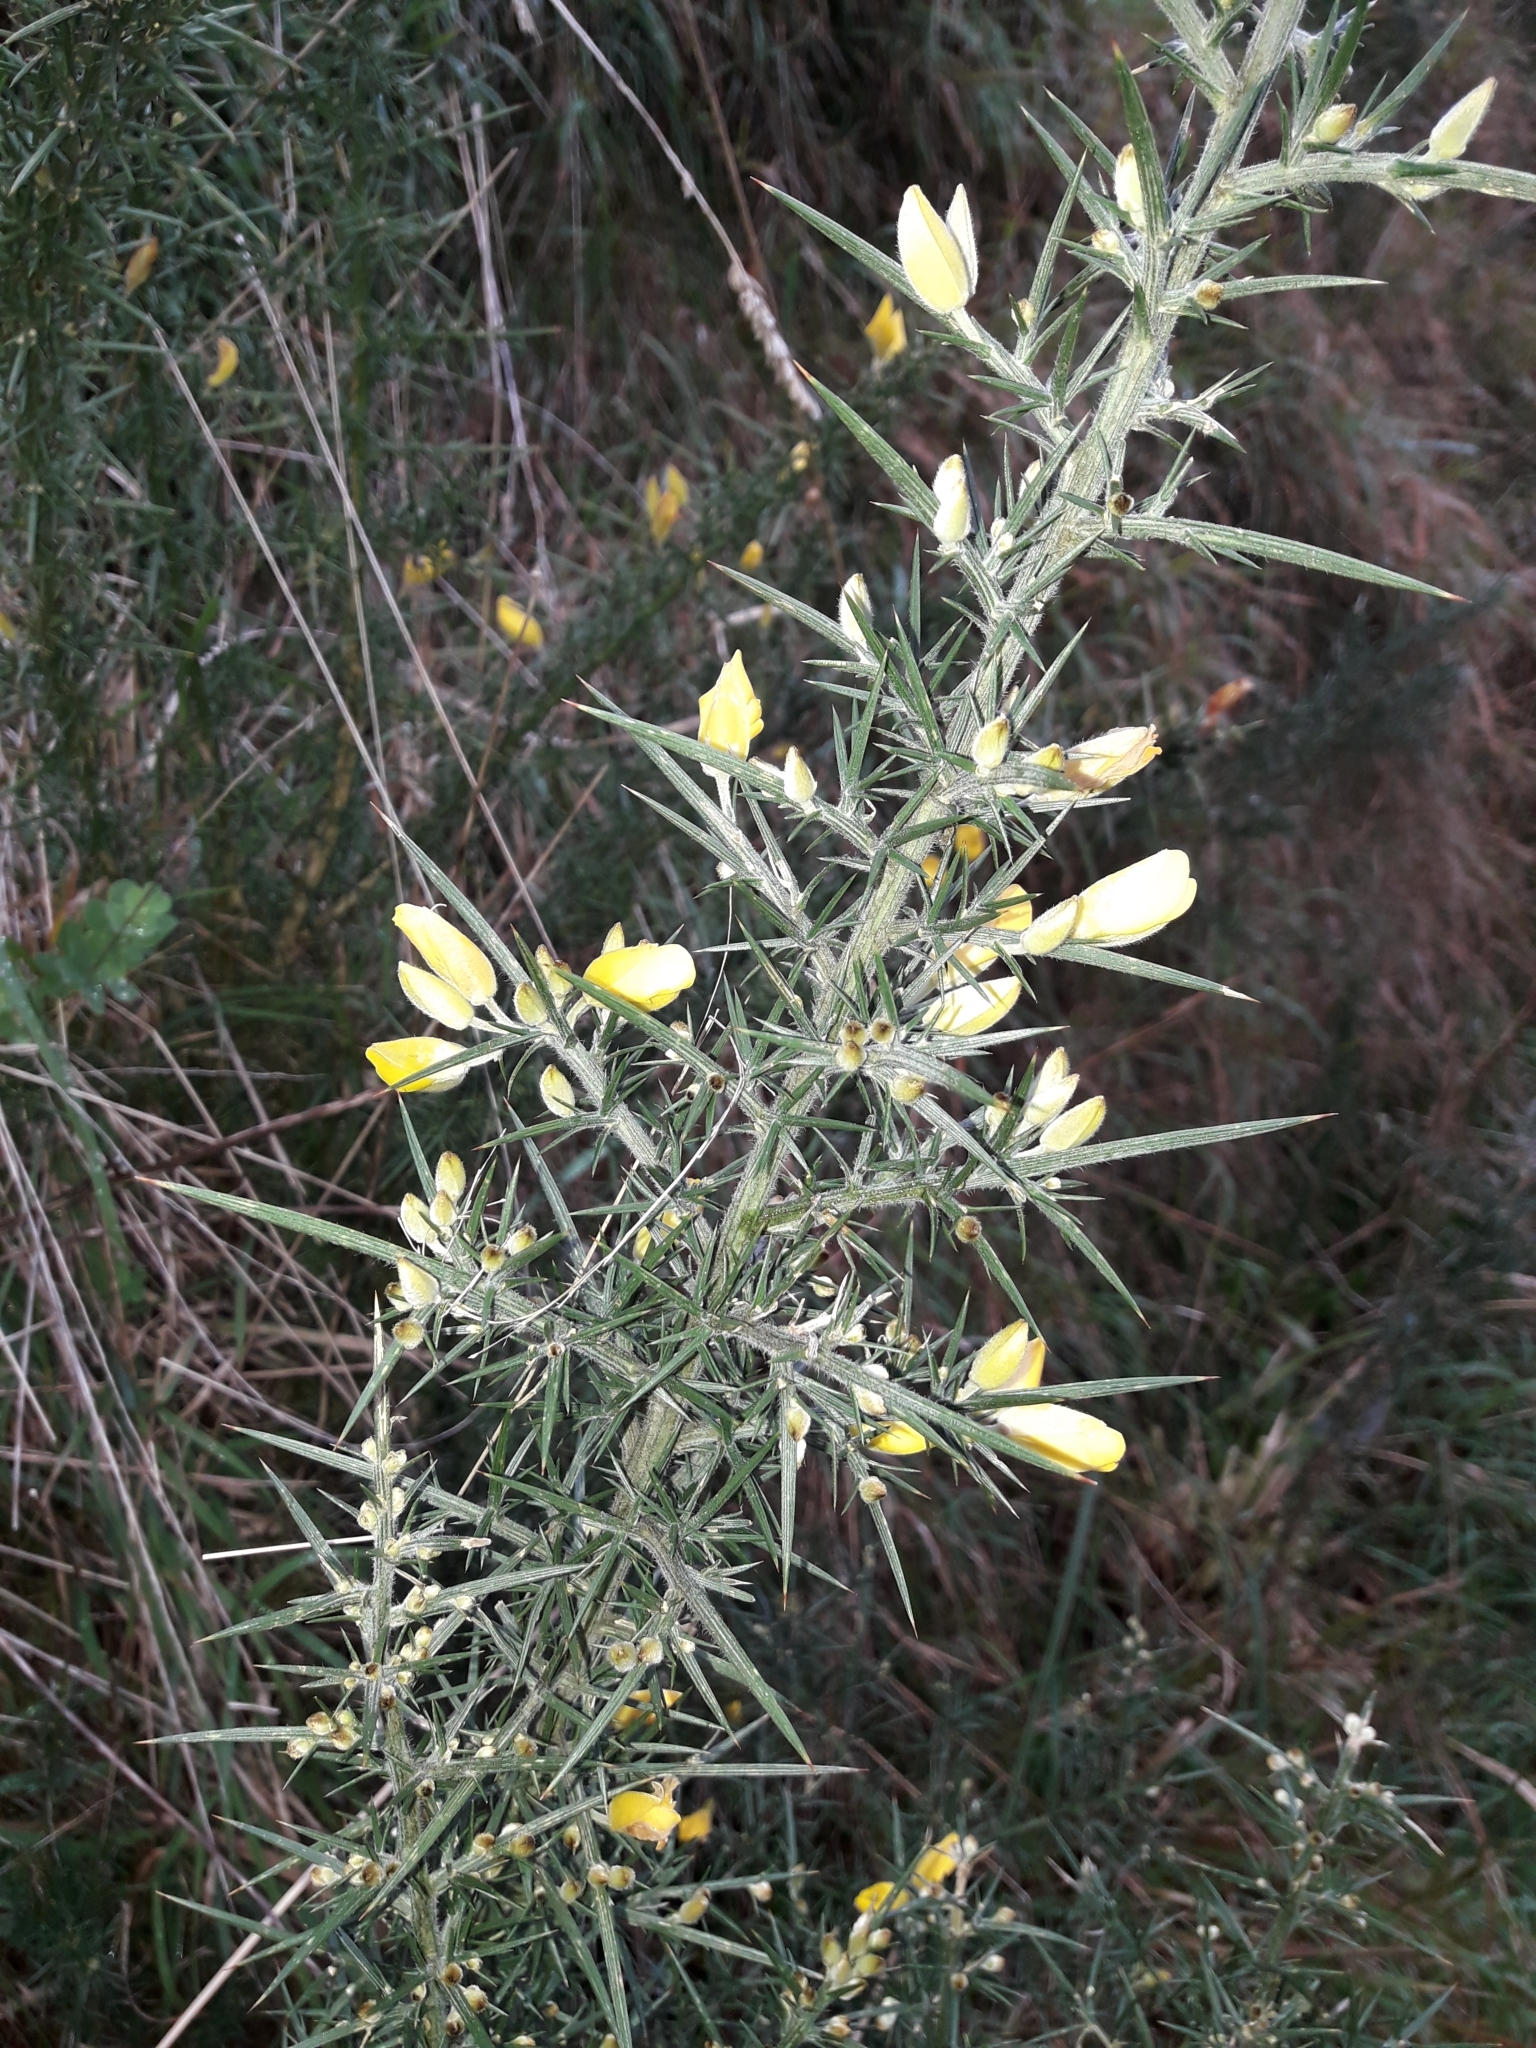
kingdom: Plantae
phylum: Tracheophyta
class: Magnoliopsida
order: Fabales
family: Fabaceae
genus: Ulex
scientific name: Ulex europaeus
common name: Common gorse
